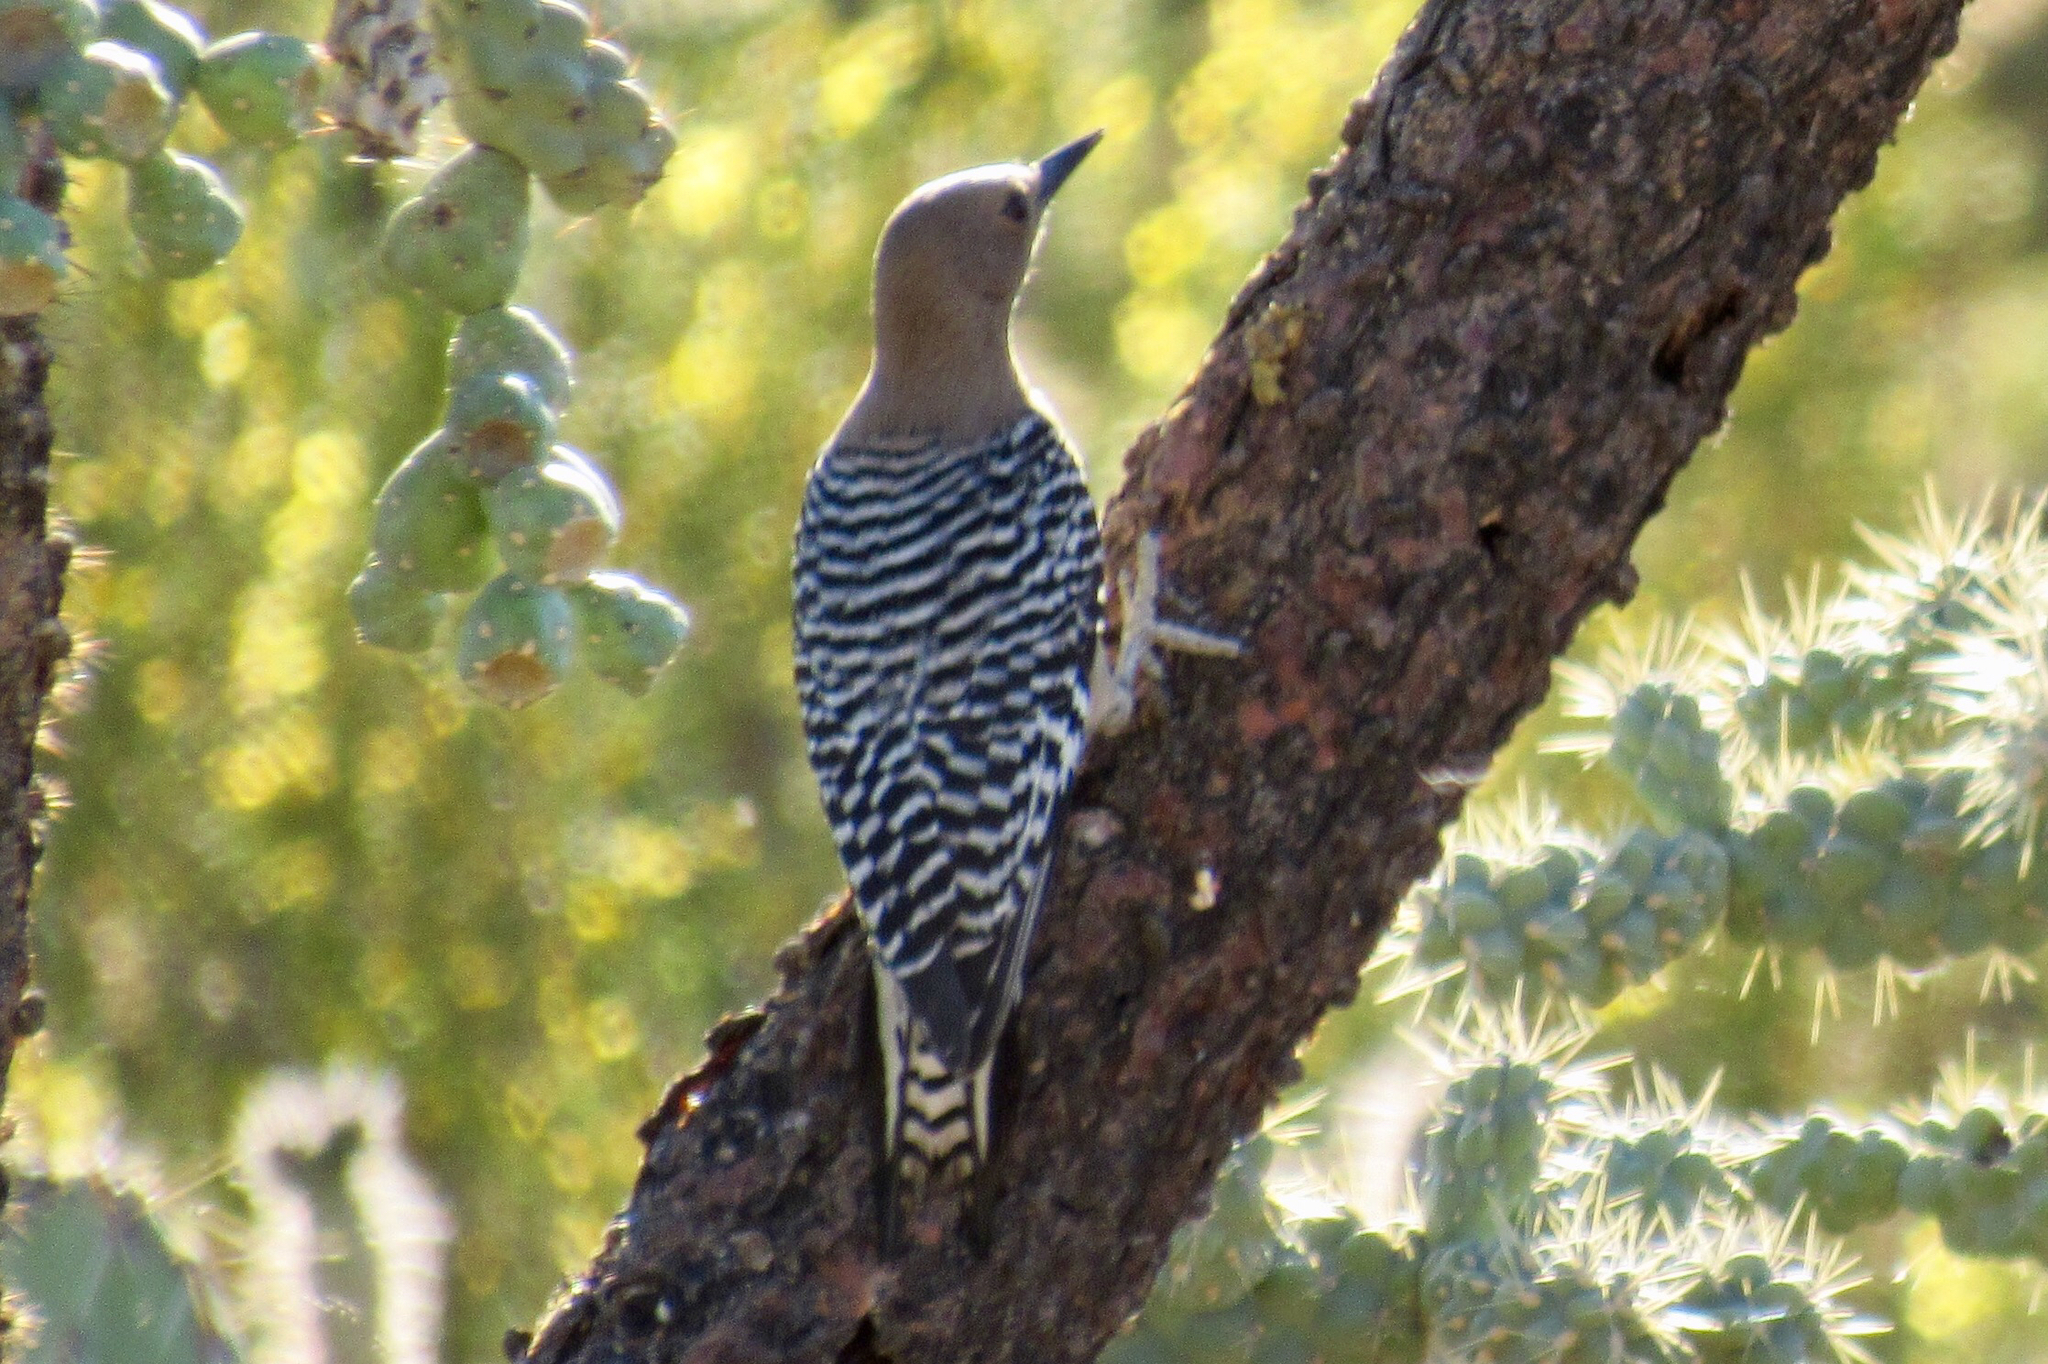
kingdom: Animalia
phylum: Chordata
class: Aves
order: Piciformes
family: Picidae
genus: Melanerpes
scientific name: Melanerpes uropygialis
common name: Gila woodpecker
